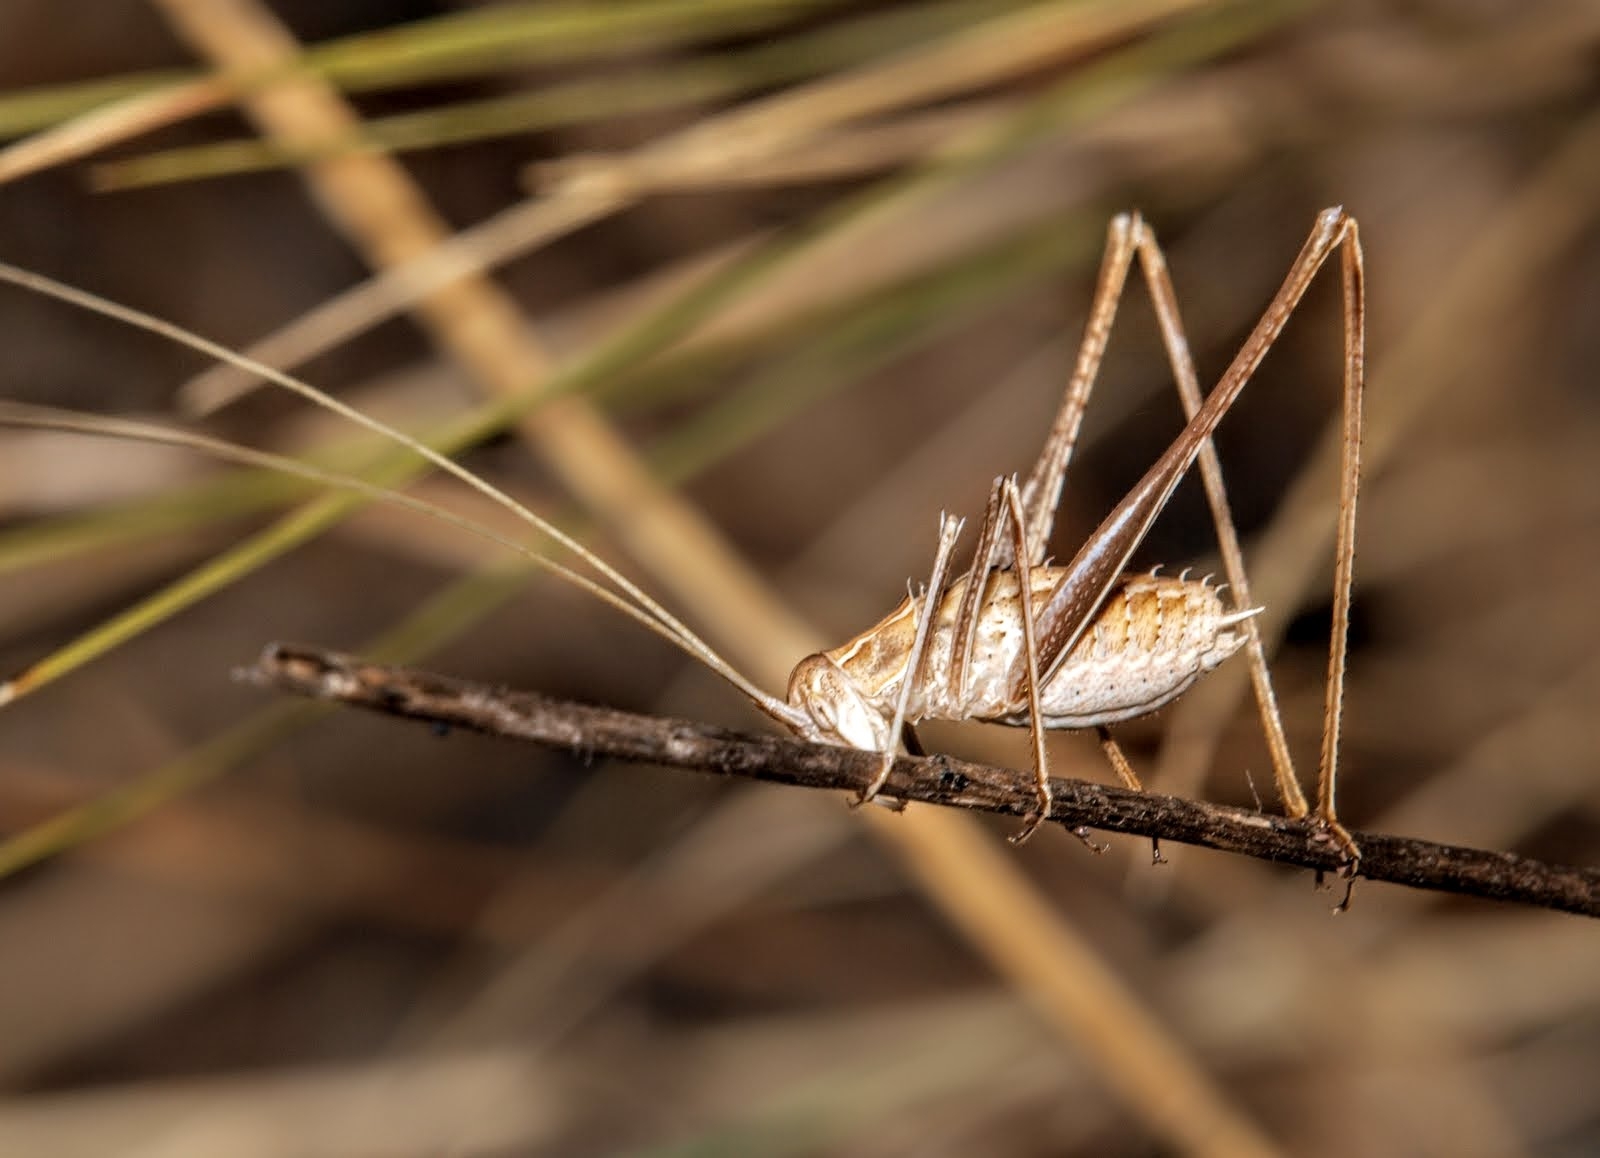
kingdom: Animalia
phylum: Arthropoda
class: Insecta
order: Orthoptera
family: Tettigoniidae
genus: Tylopsis
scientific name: Tylopsis lilifolia
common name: Lily bush-cricket
